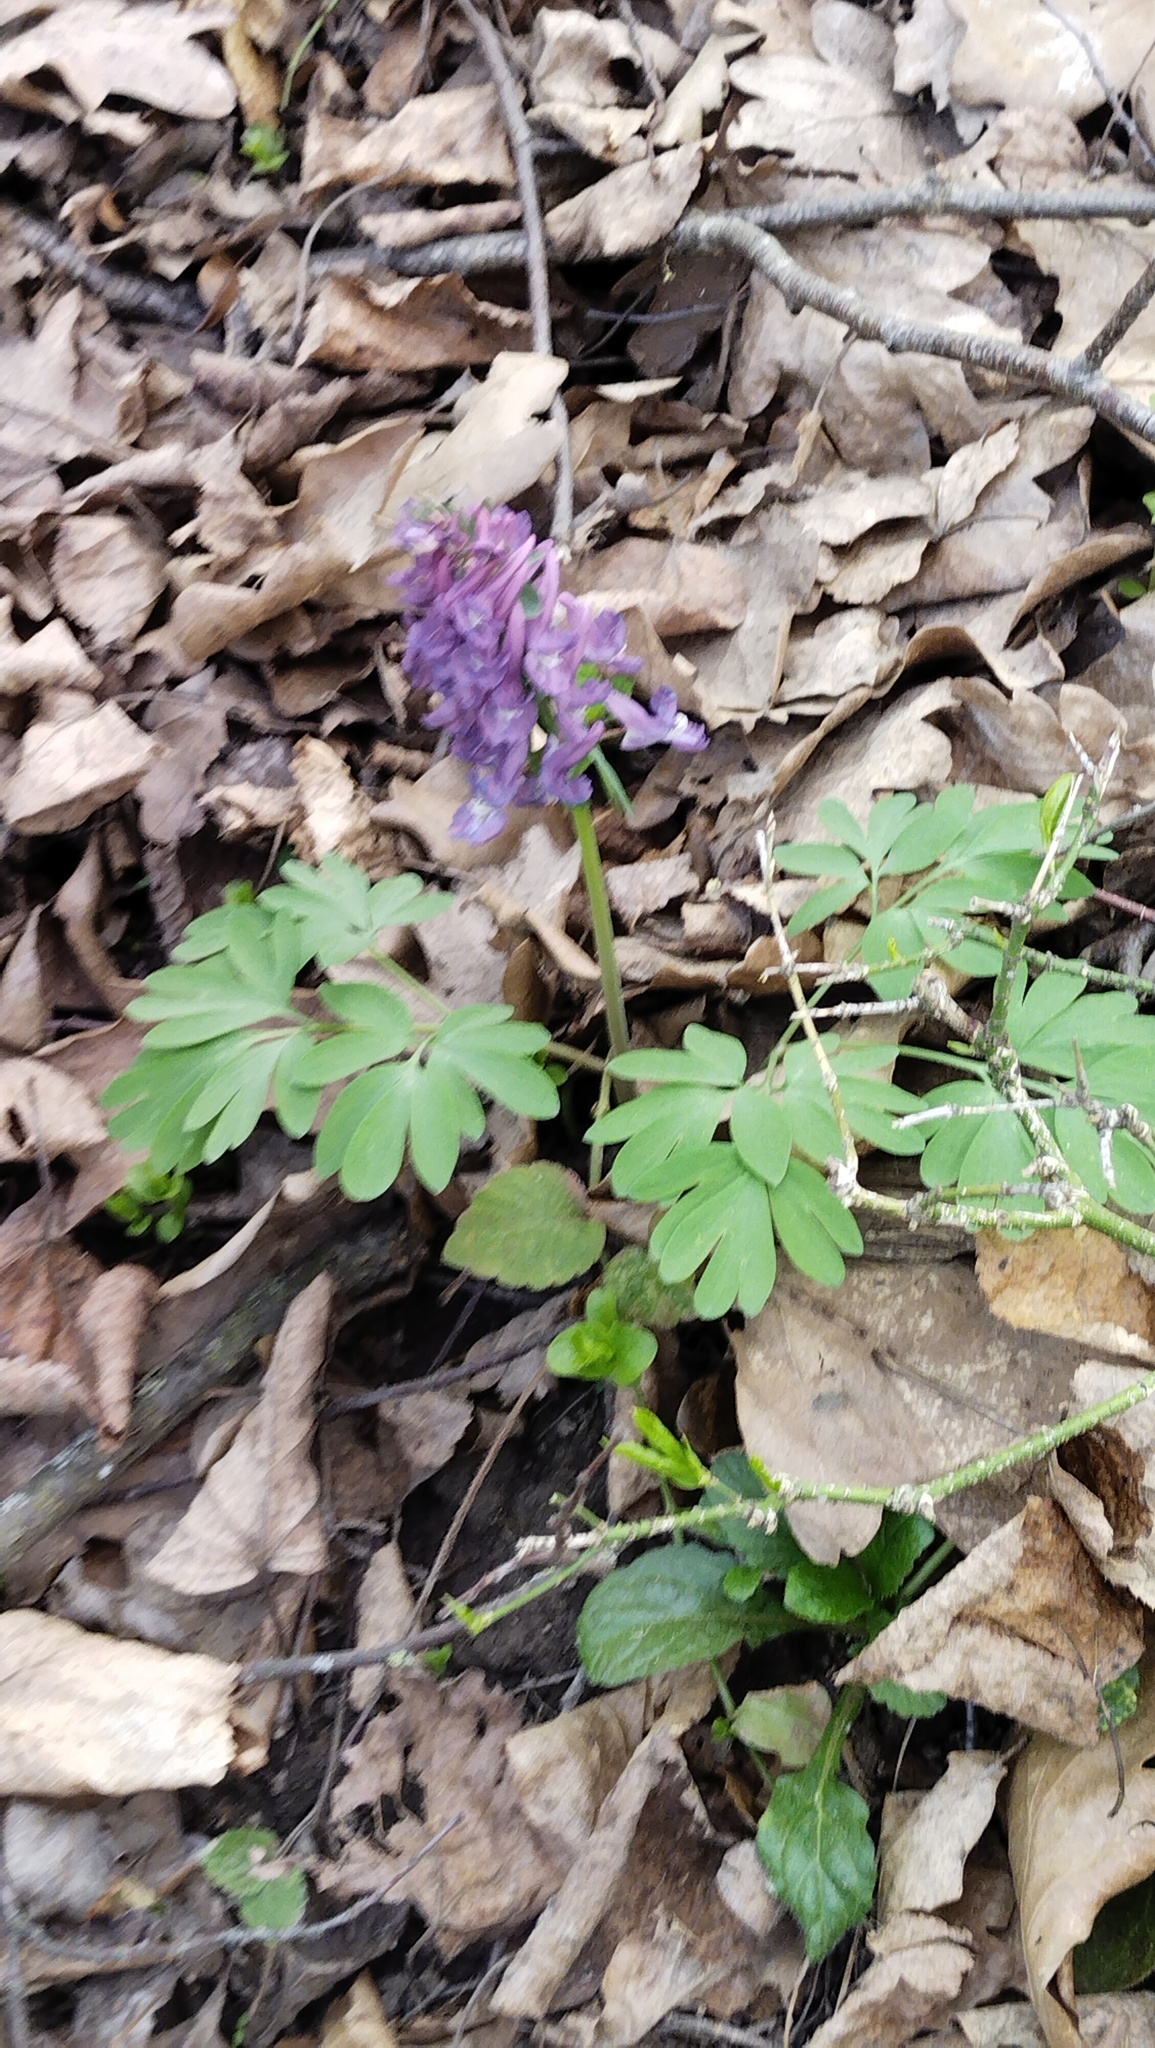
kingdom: Plantae
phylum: Tracheophyta
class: Magnoliopsida
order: Ranunculales
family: Papaveraceae
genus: Corydalis
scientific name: Corydalis solida
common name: Bird-in-a-bush
